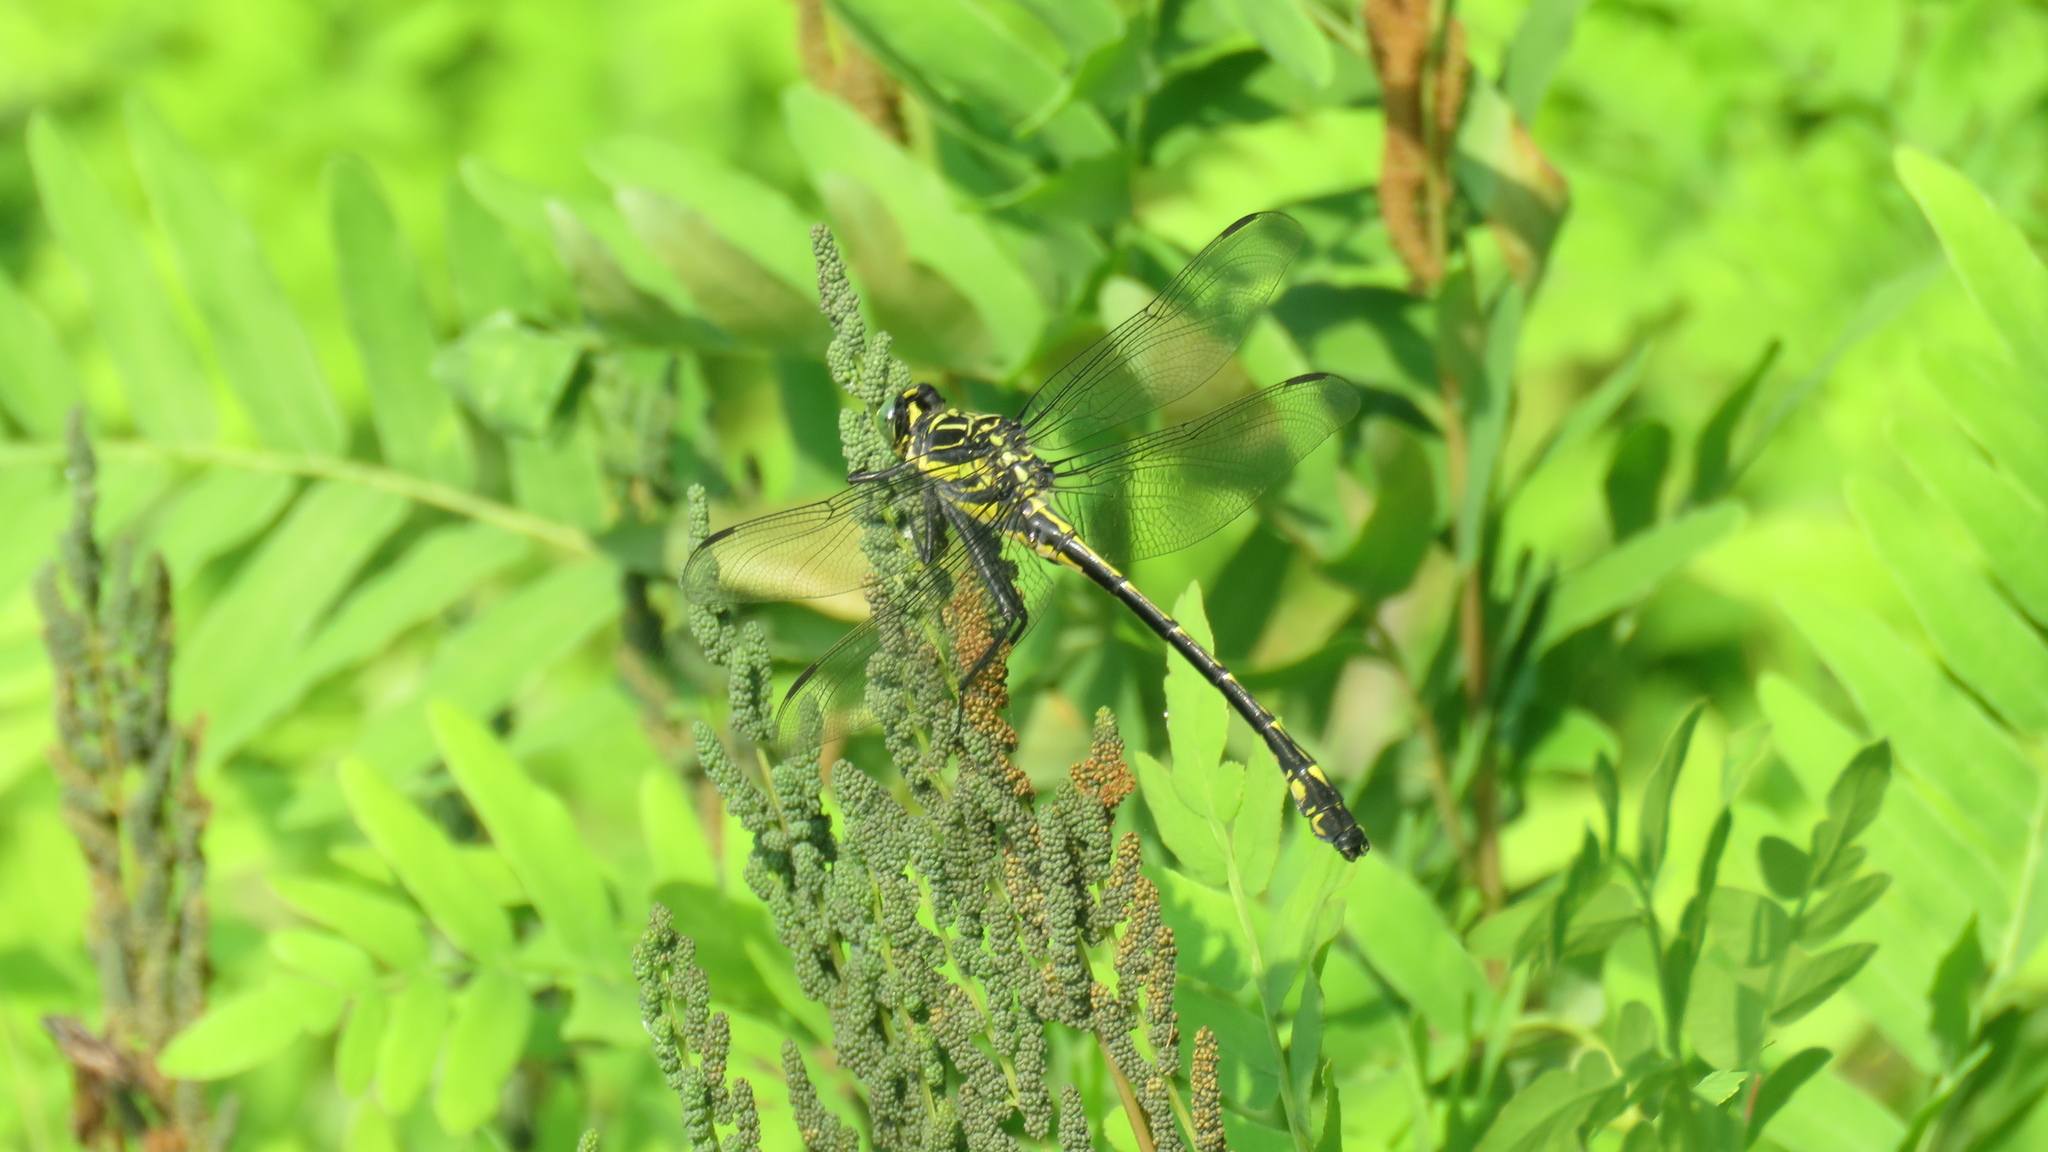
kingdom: Animalia
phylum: Arthropoda
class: Insecta
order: Odonata
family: Gomphidae
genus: Hagenius
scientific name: Hagenius brevistylus
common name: Dragonhunter
